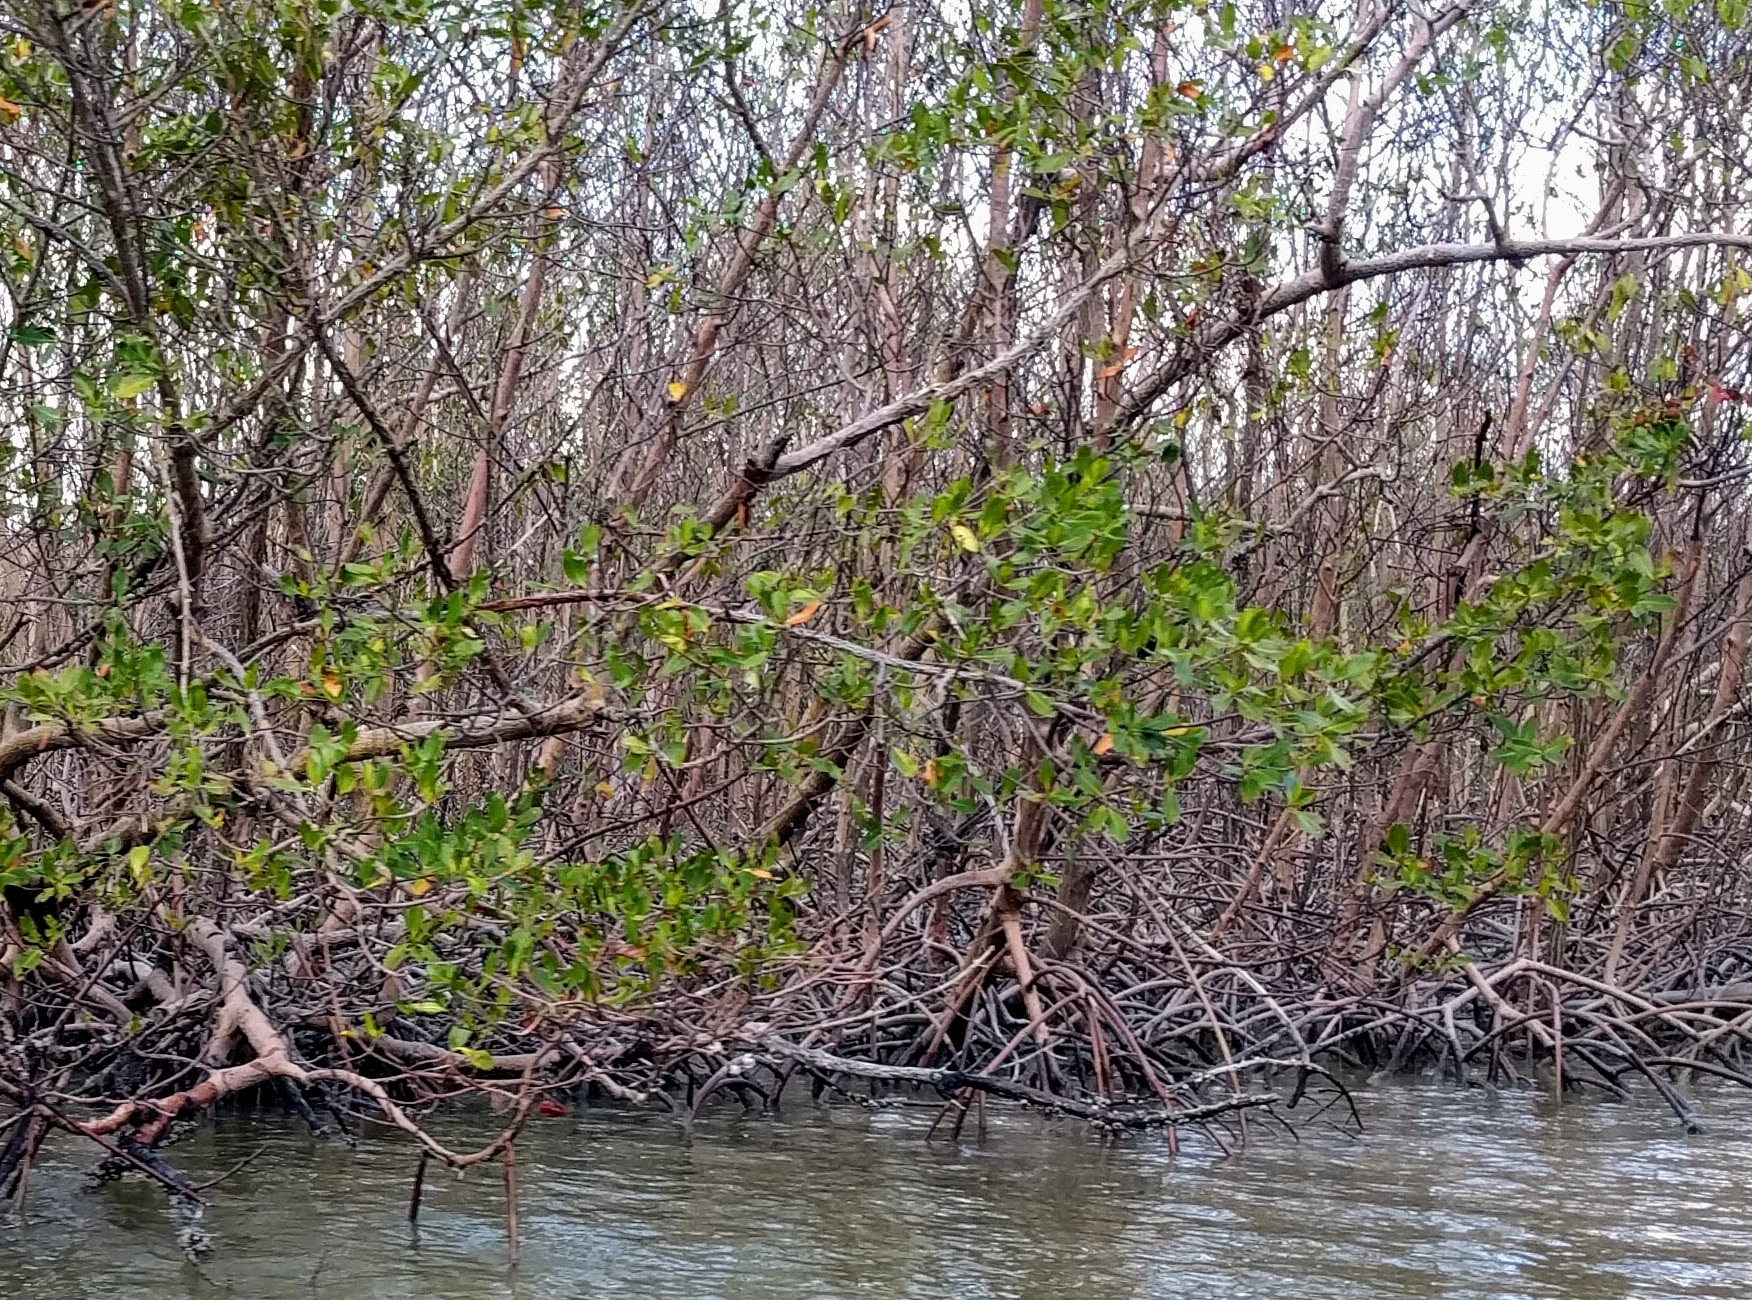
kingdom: Plantae
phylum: Tracheophyta
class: Magnoliopsida
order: Malpighiales
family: Rhizophoraceae
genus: Rhizophora
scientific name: Rhizophora mangle
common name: Red mangrove
